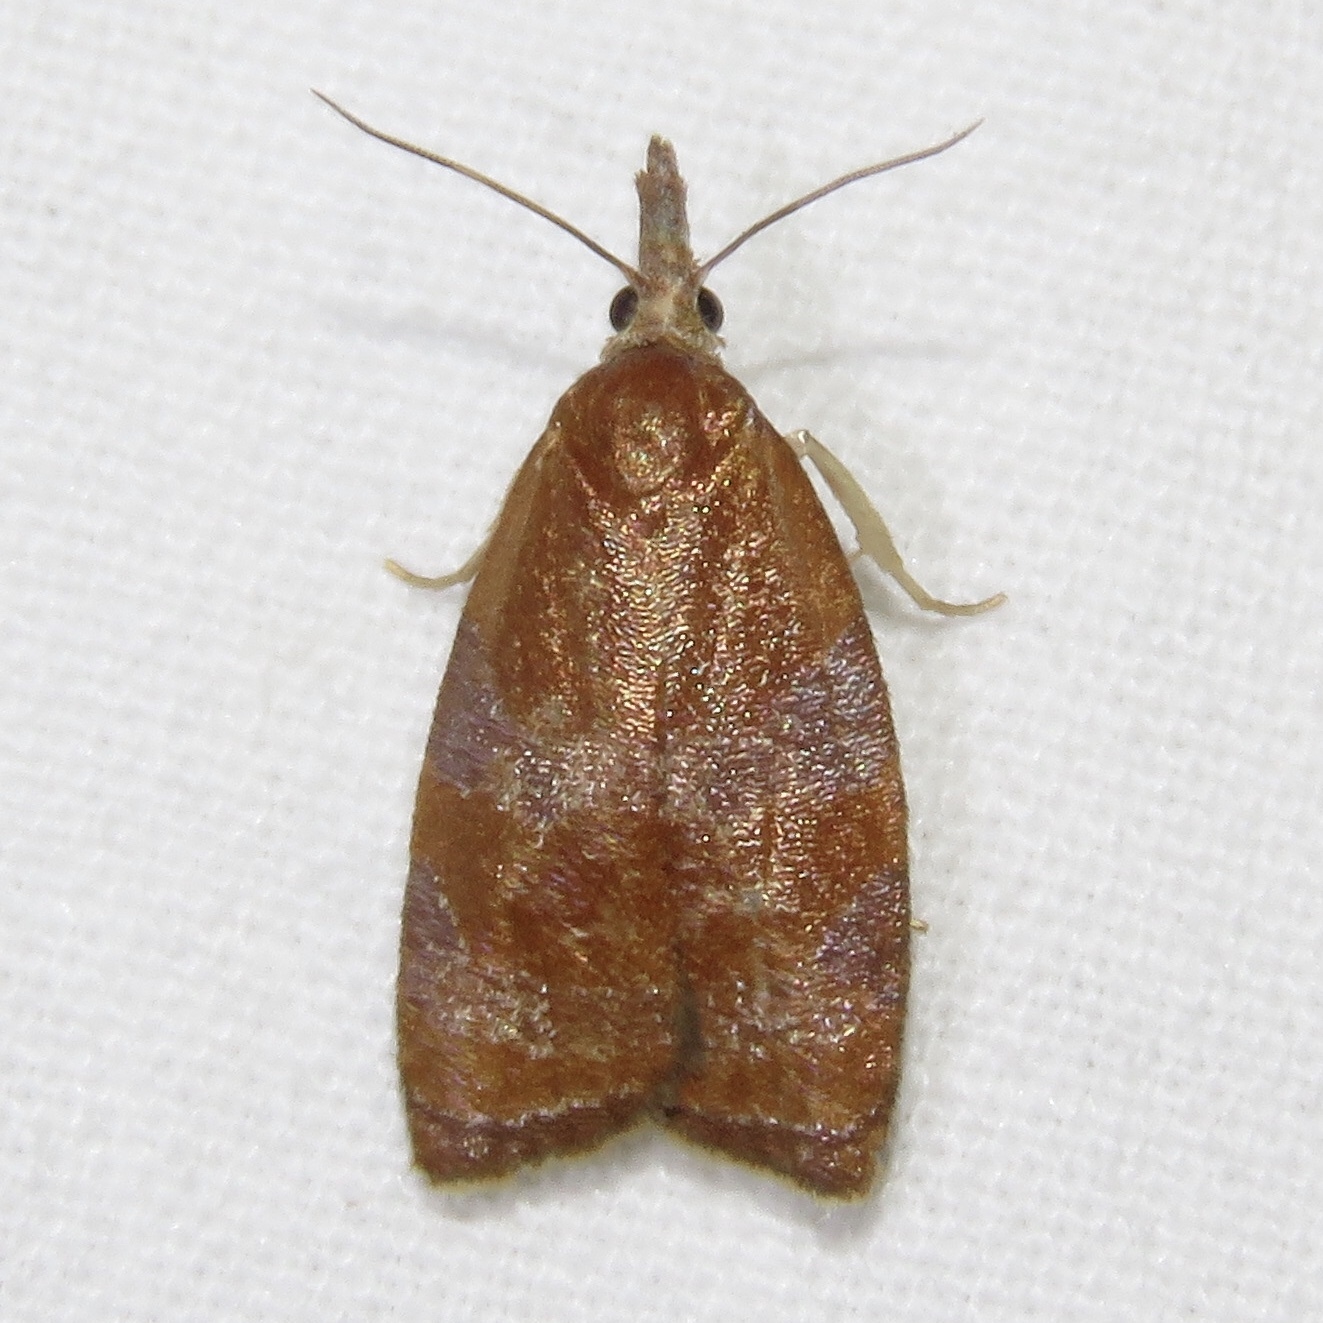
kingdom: Animalia
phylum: Arthropoda
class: Insecta
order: Lepidoptera
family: Tortricidae
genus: Cenopis
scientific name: Cenopis diluticostana
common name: Spring dead-leaf roller moth
